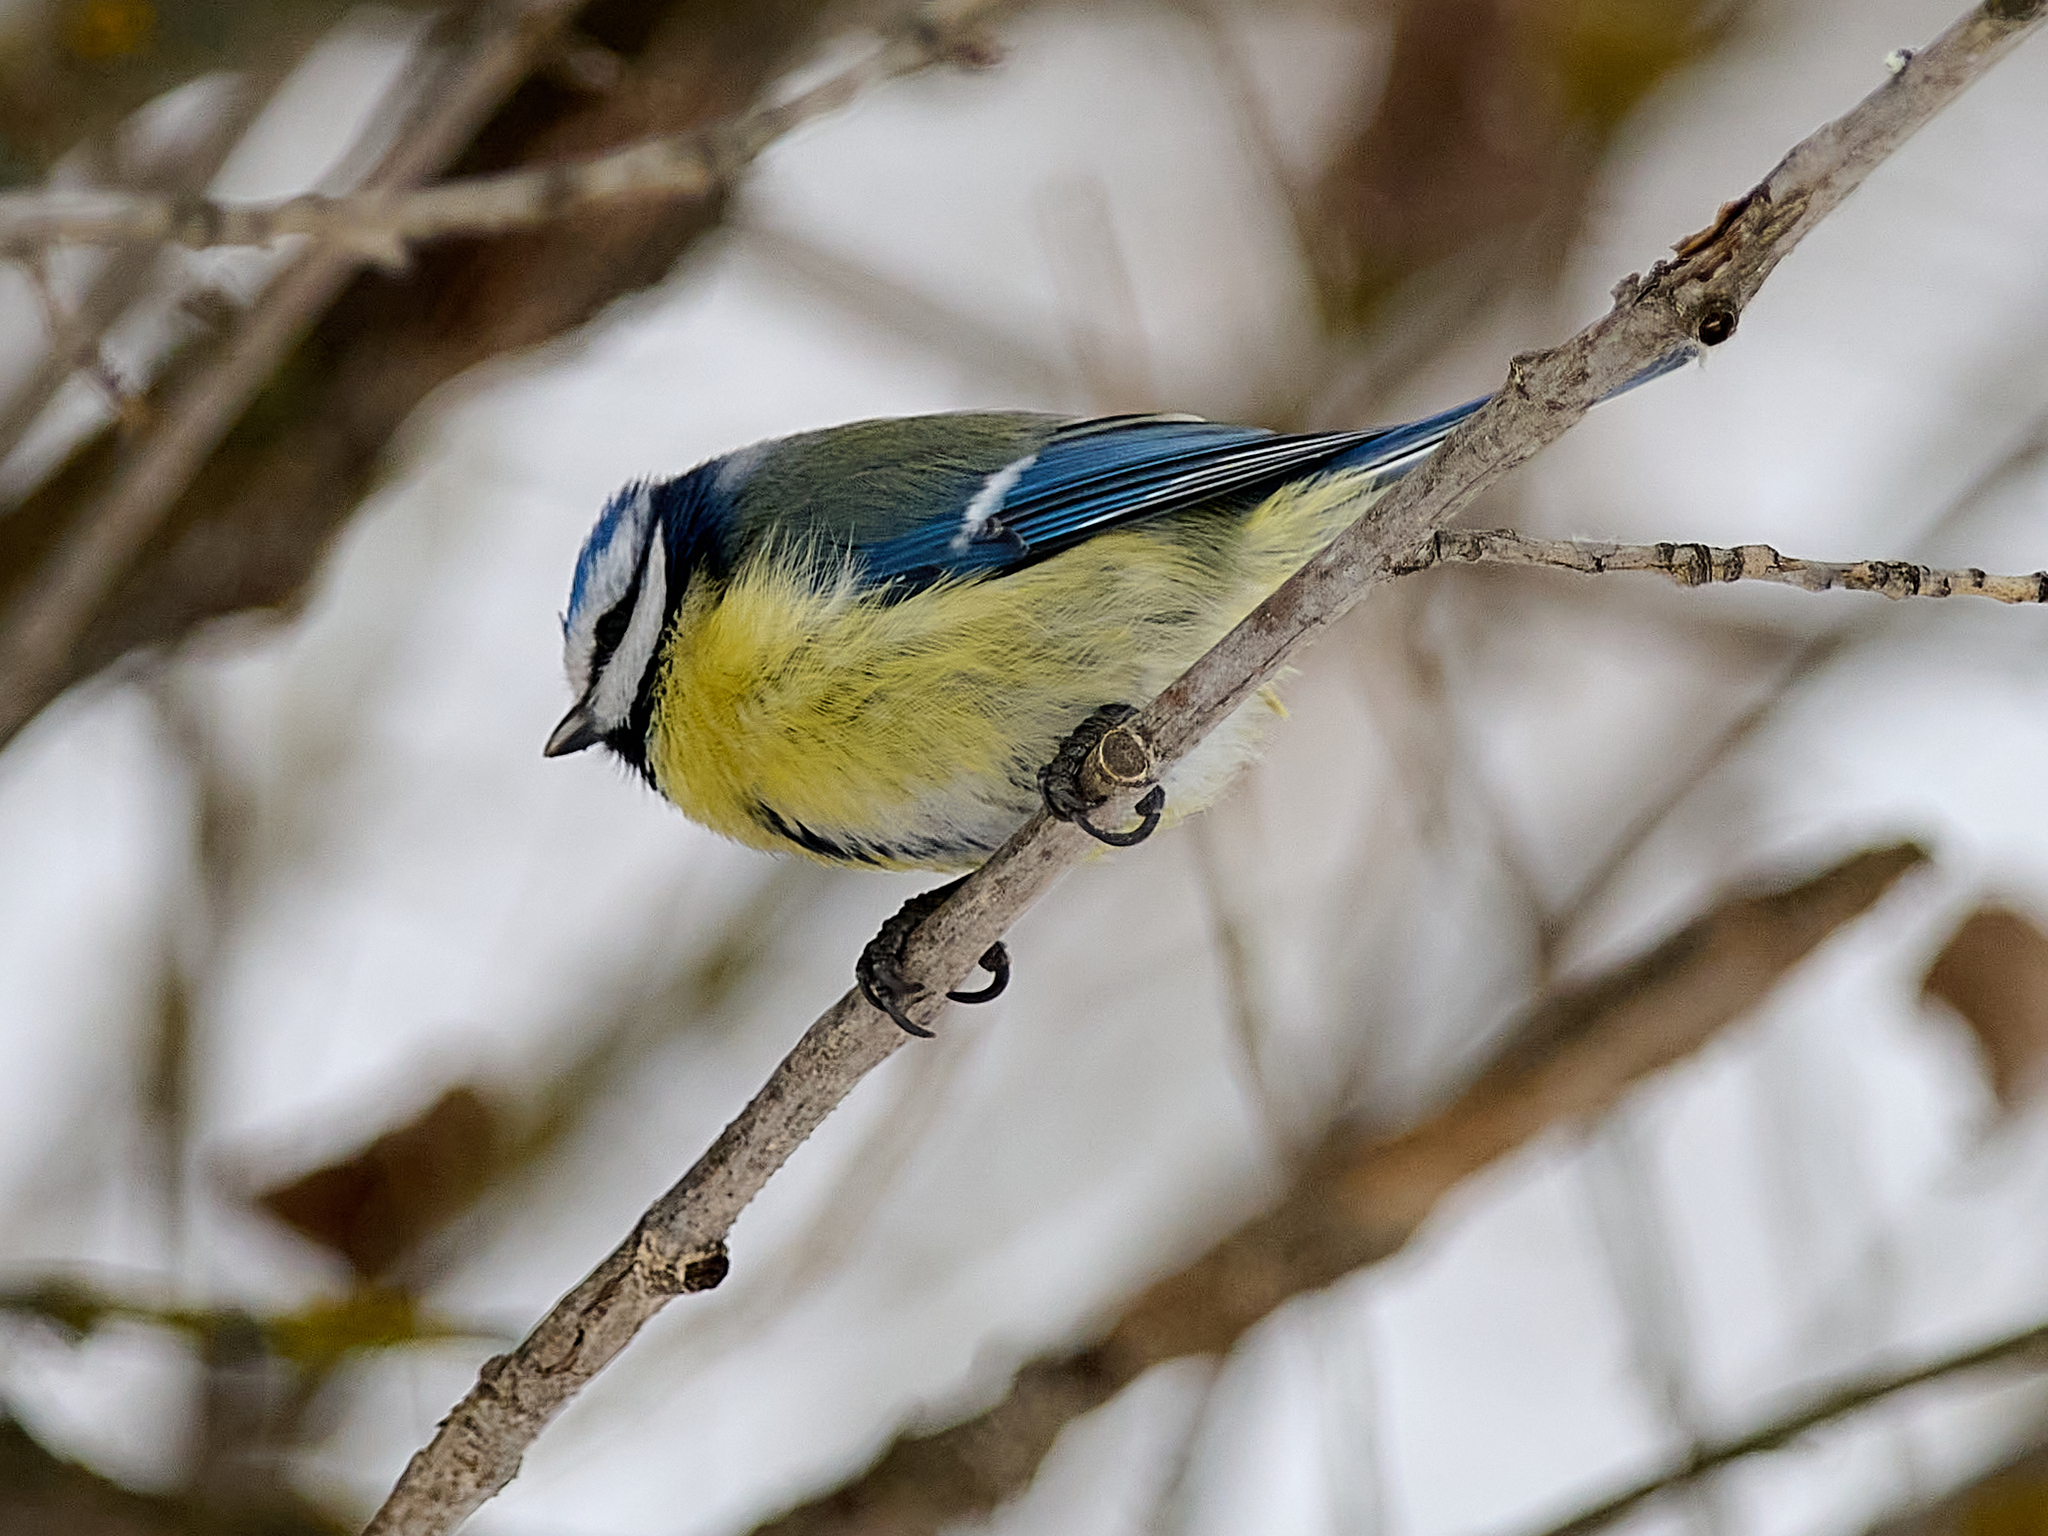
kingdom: Animalia
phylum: Chordata
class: Aves
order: Passeriformes
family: Paridae
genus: Cyanistes
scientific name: Cyanistes caeruleus
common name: Eurasian blue tit
